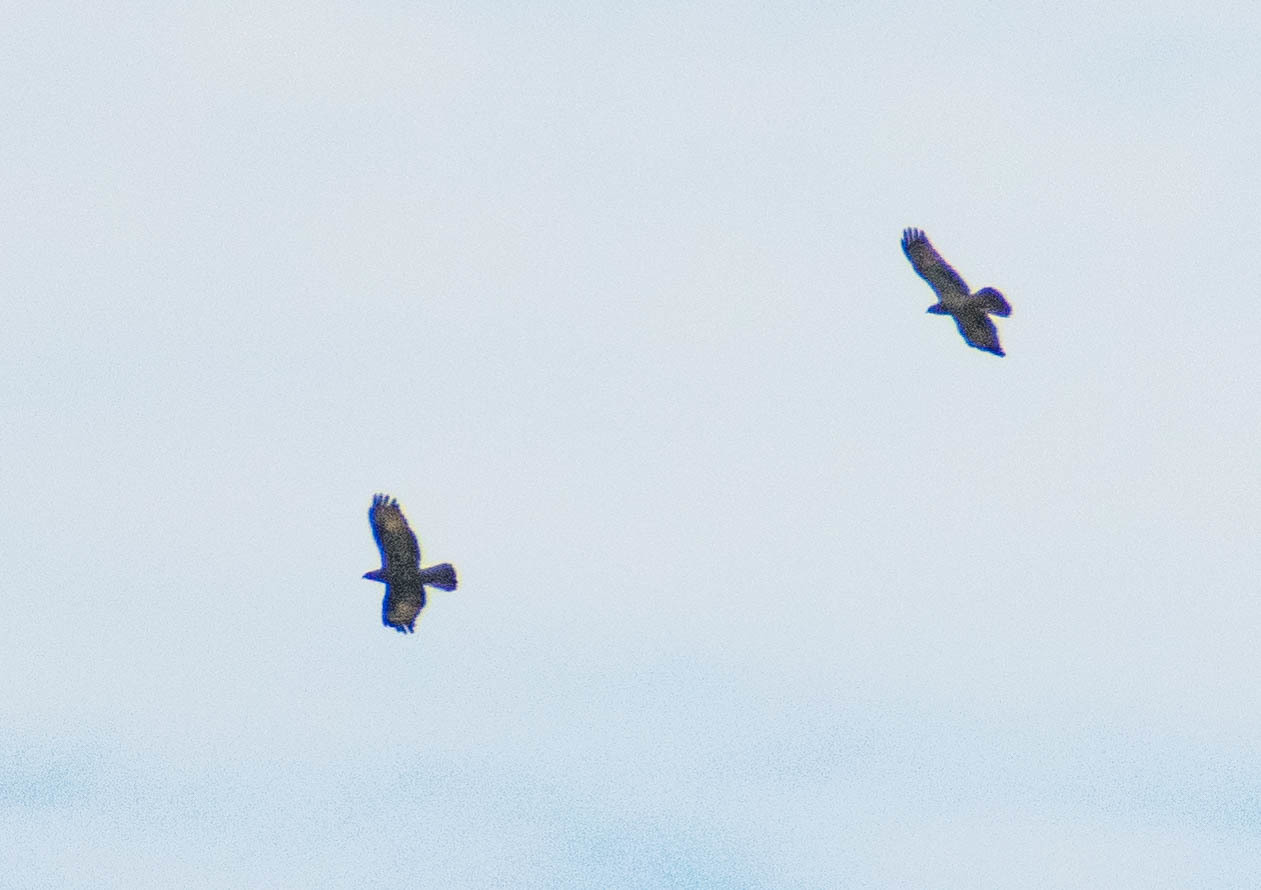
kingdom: Animalia
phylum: Chordata
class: Aves
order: Accipitriformes
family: Accipitridae
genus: Pernis
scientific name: Pernis apivorus
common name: European honey buzzard
